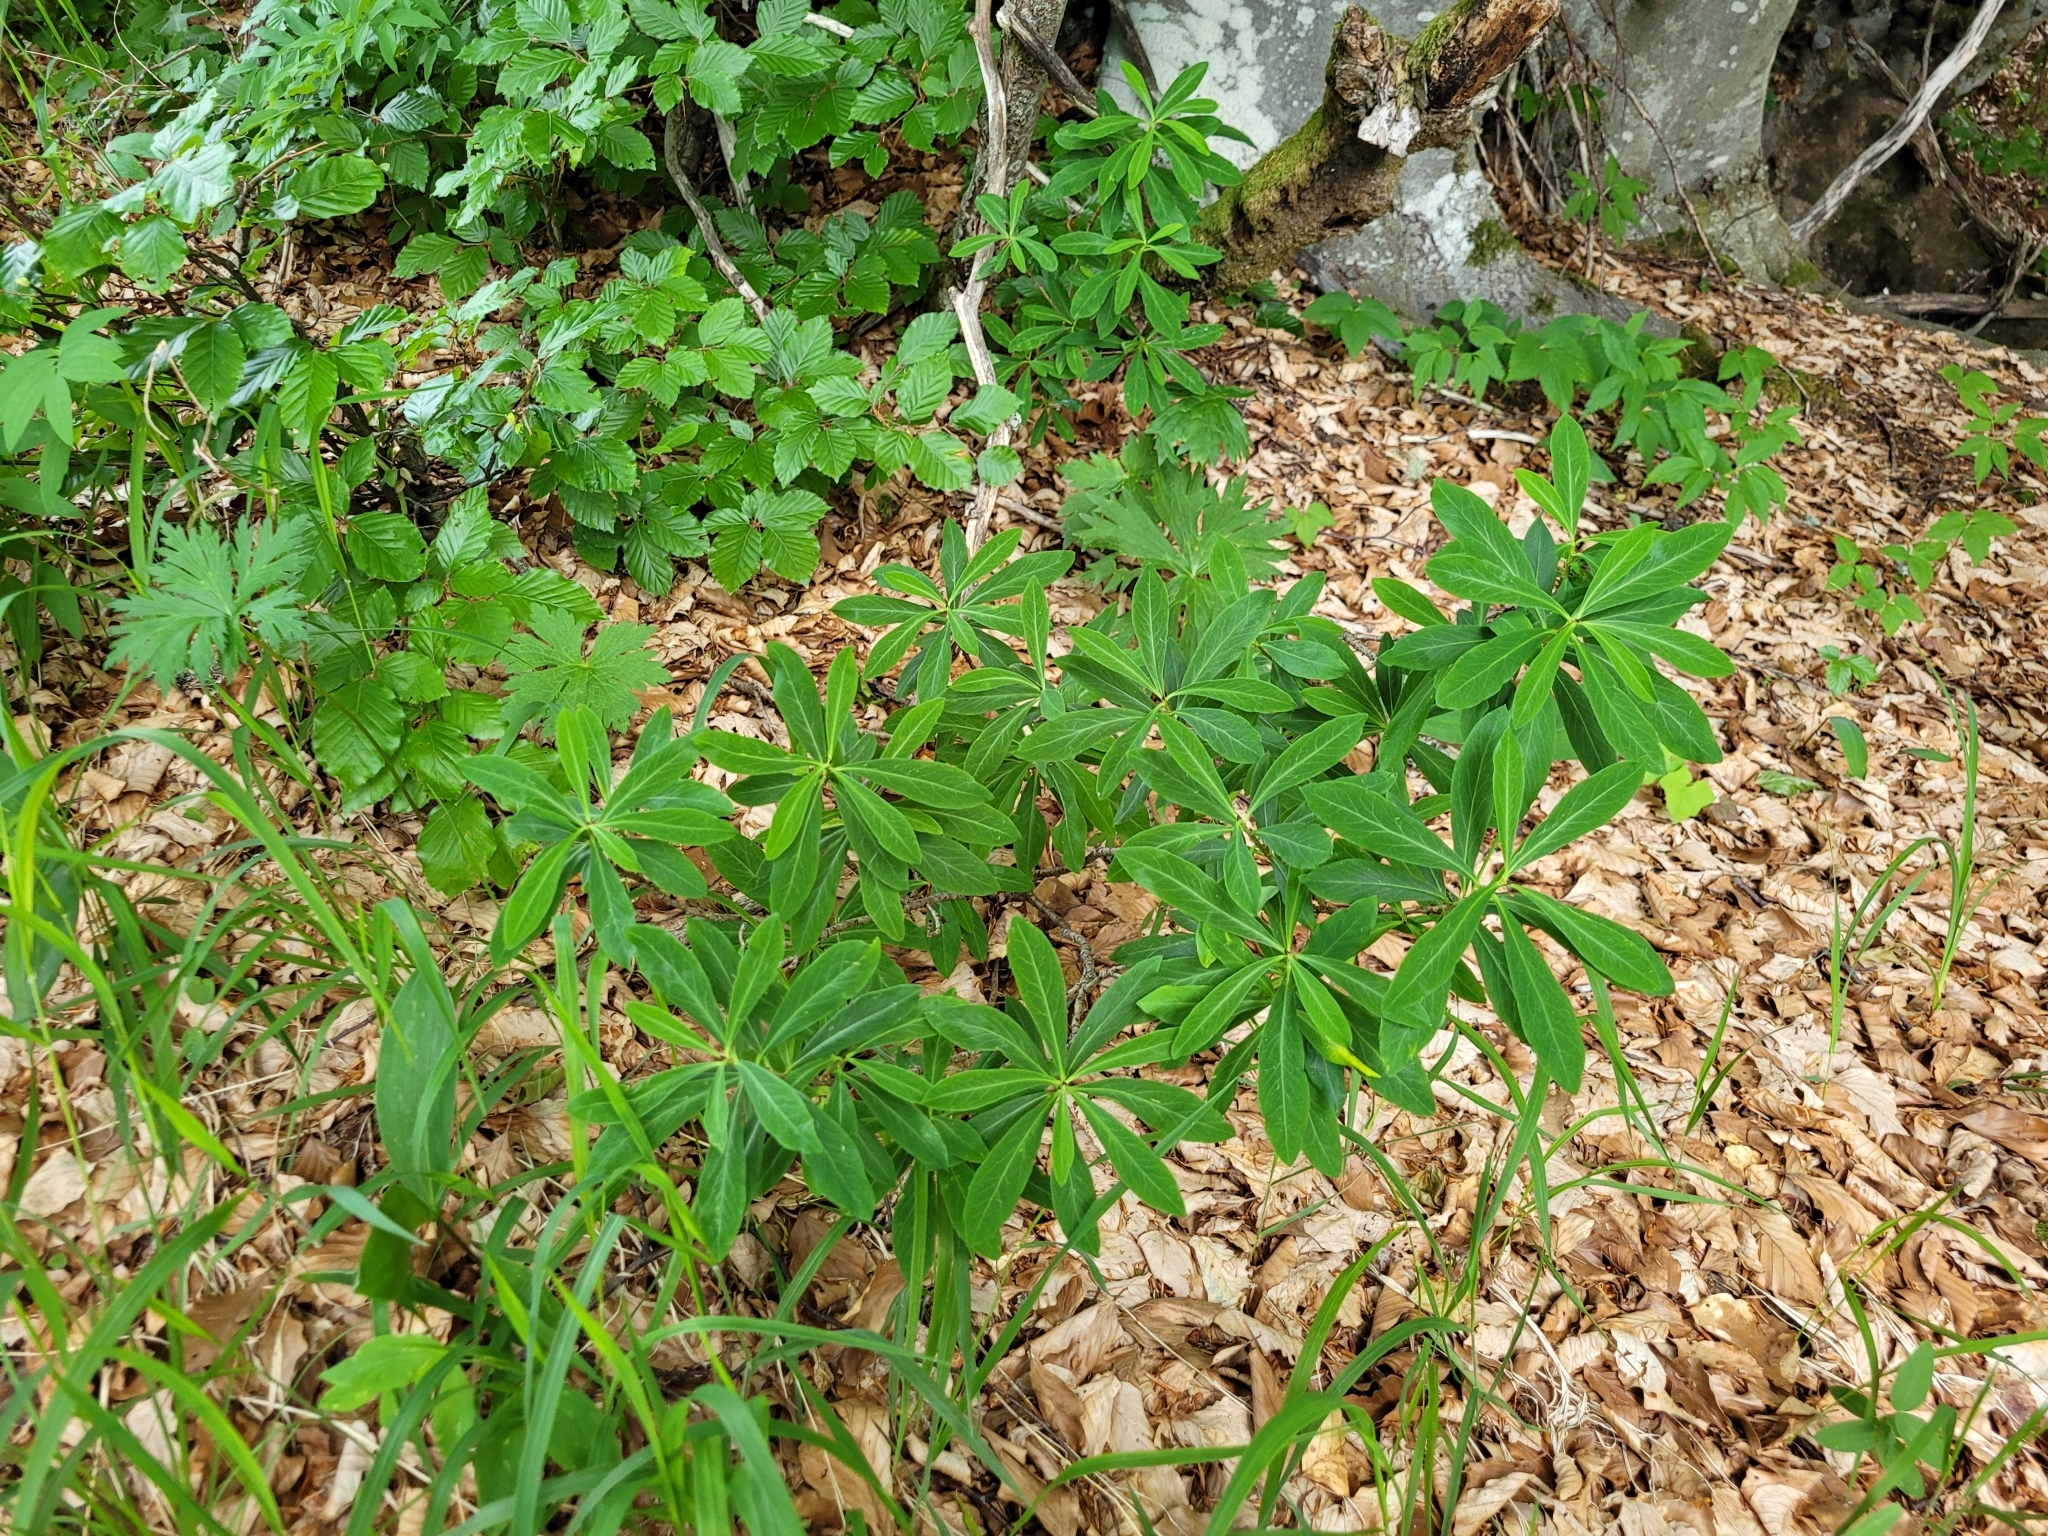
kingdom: Plantae
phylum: Tracheophyta
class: Magnoliopsida
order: Malvales
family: Thymelaeaceae
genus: Daphne
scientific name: Daphne mezereum
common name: Mezereon
